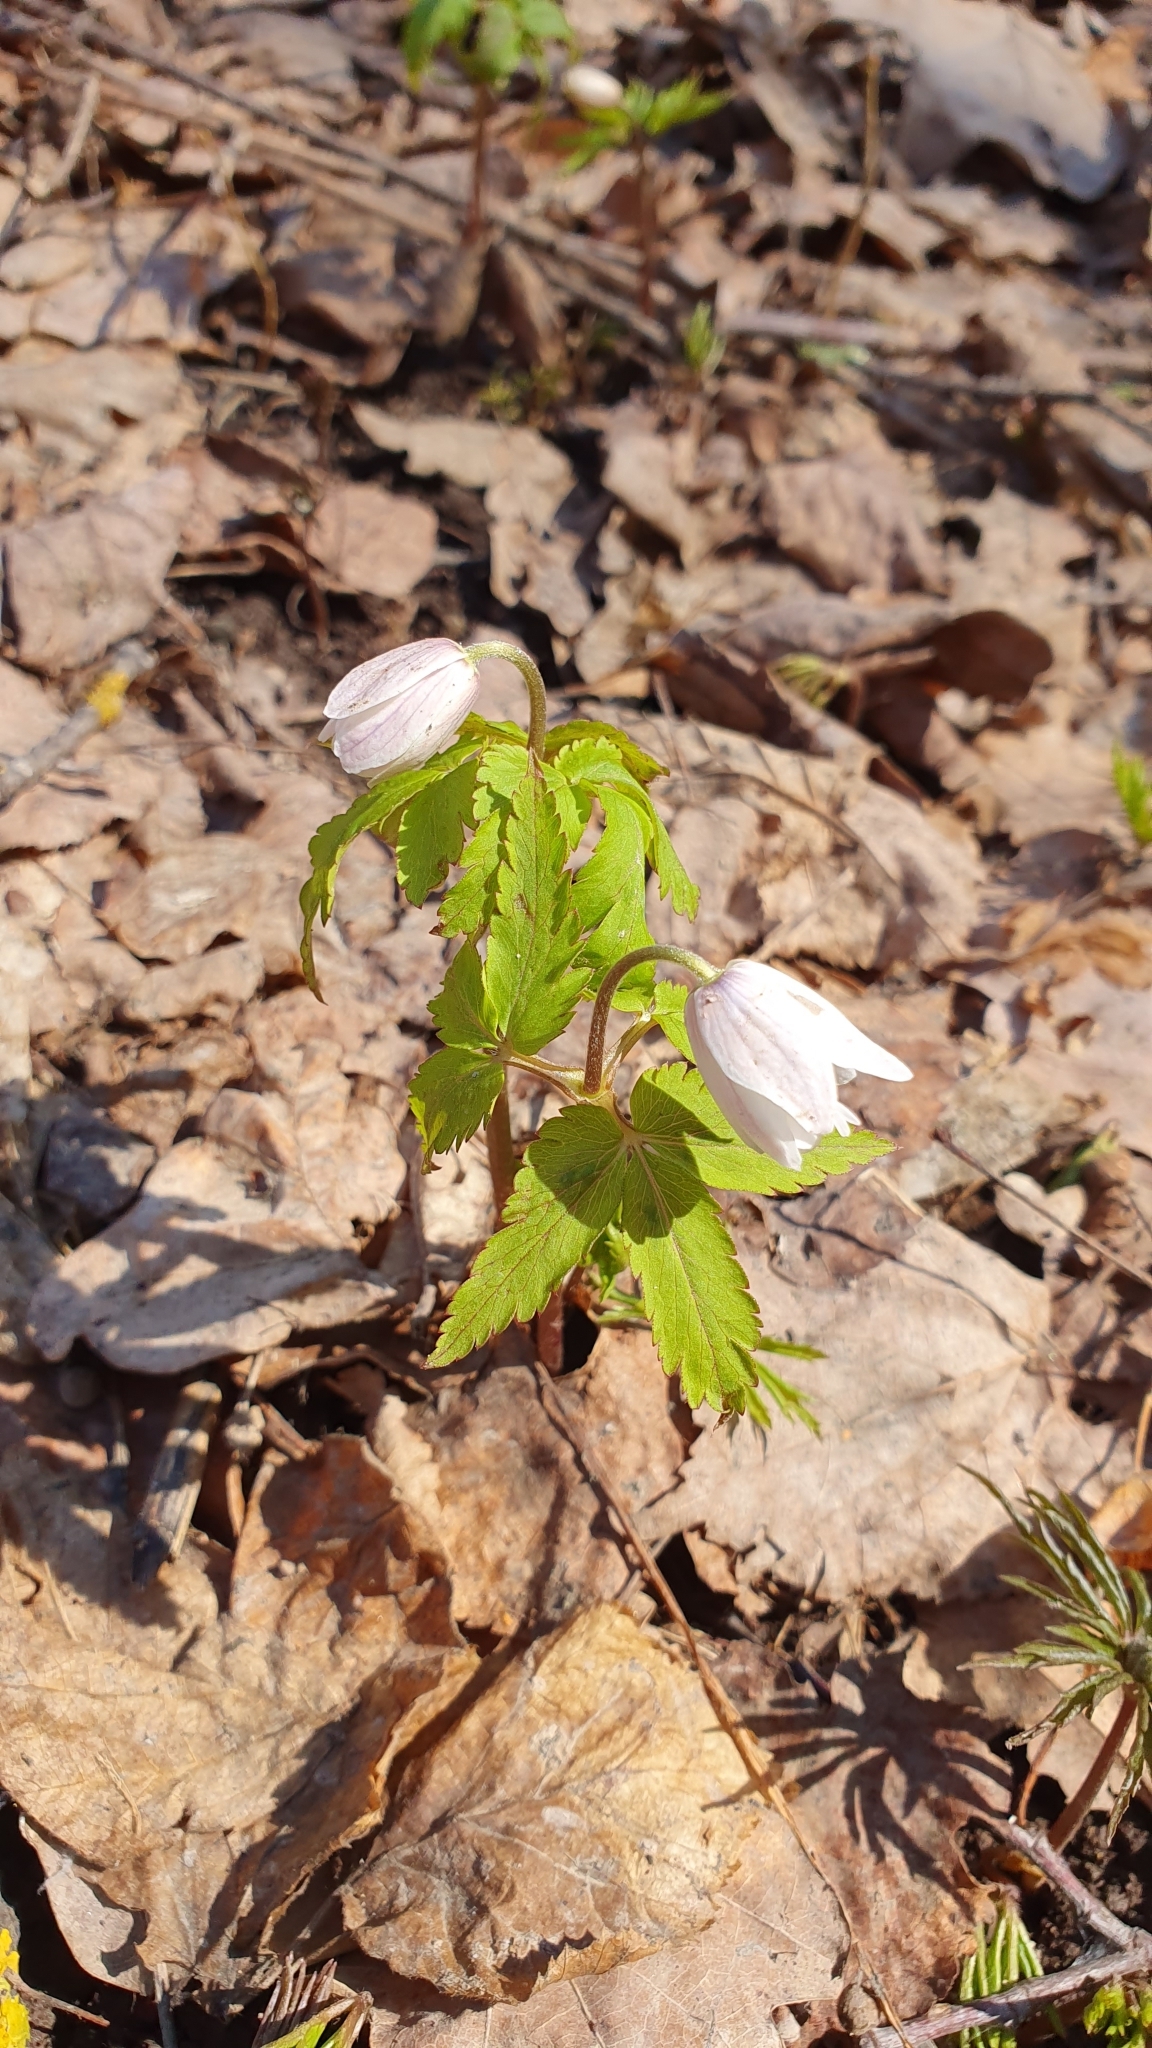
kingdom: Plantae
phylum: Tracheophyta
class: Magnoliopsida
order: Ranunculales
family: Ranunculaceae
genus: Anemone
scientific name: Anemone altaica
